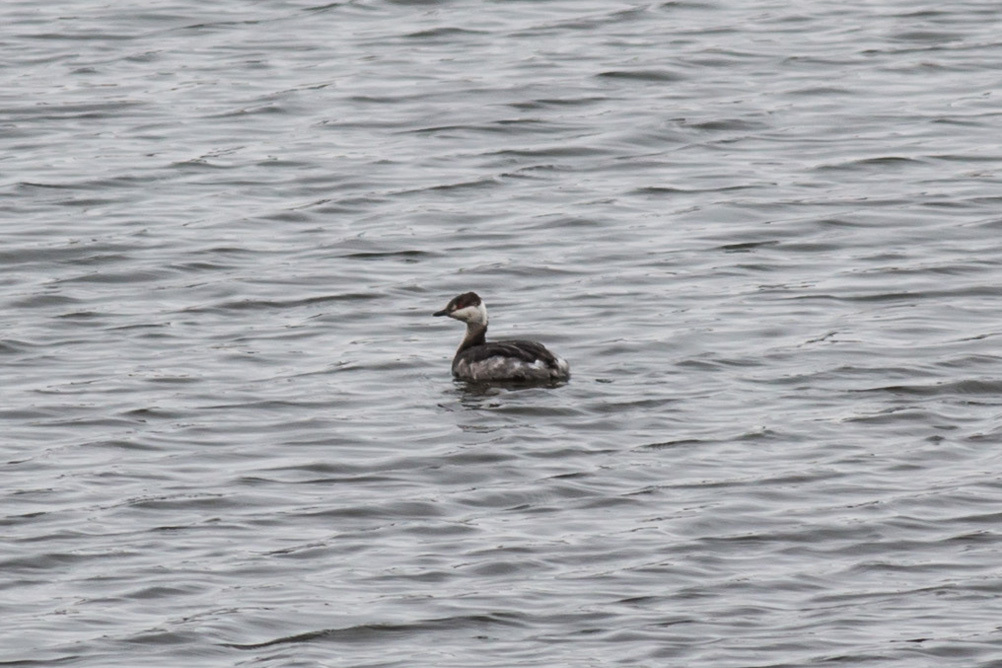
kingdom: Animalia
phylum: Chordata
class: Aves
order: Podicipediformes
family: Podicipedidae
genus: Podiceps
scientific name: Podiceps auritus
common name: Horned grebe
